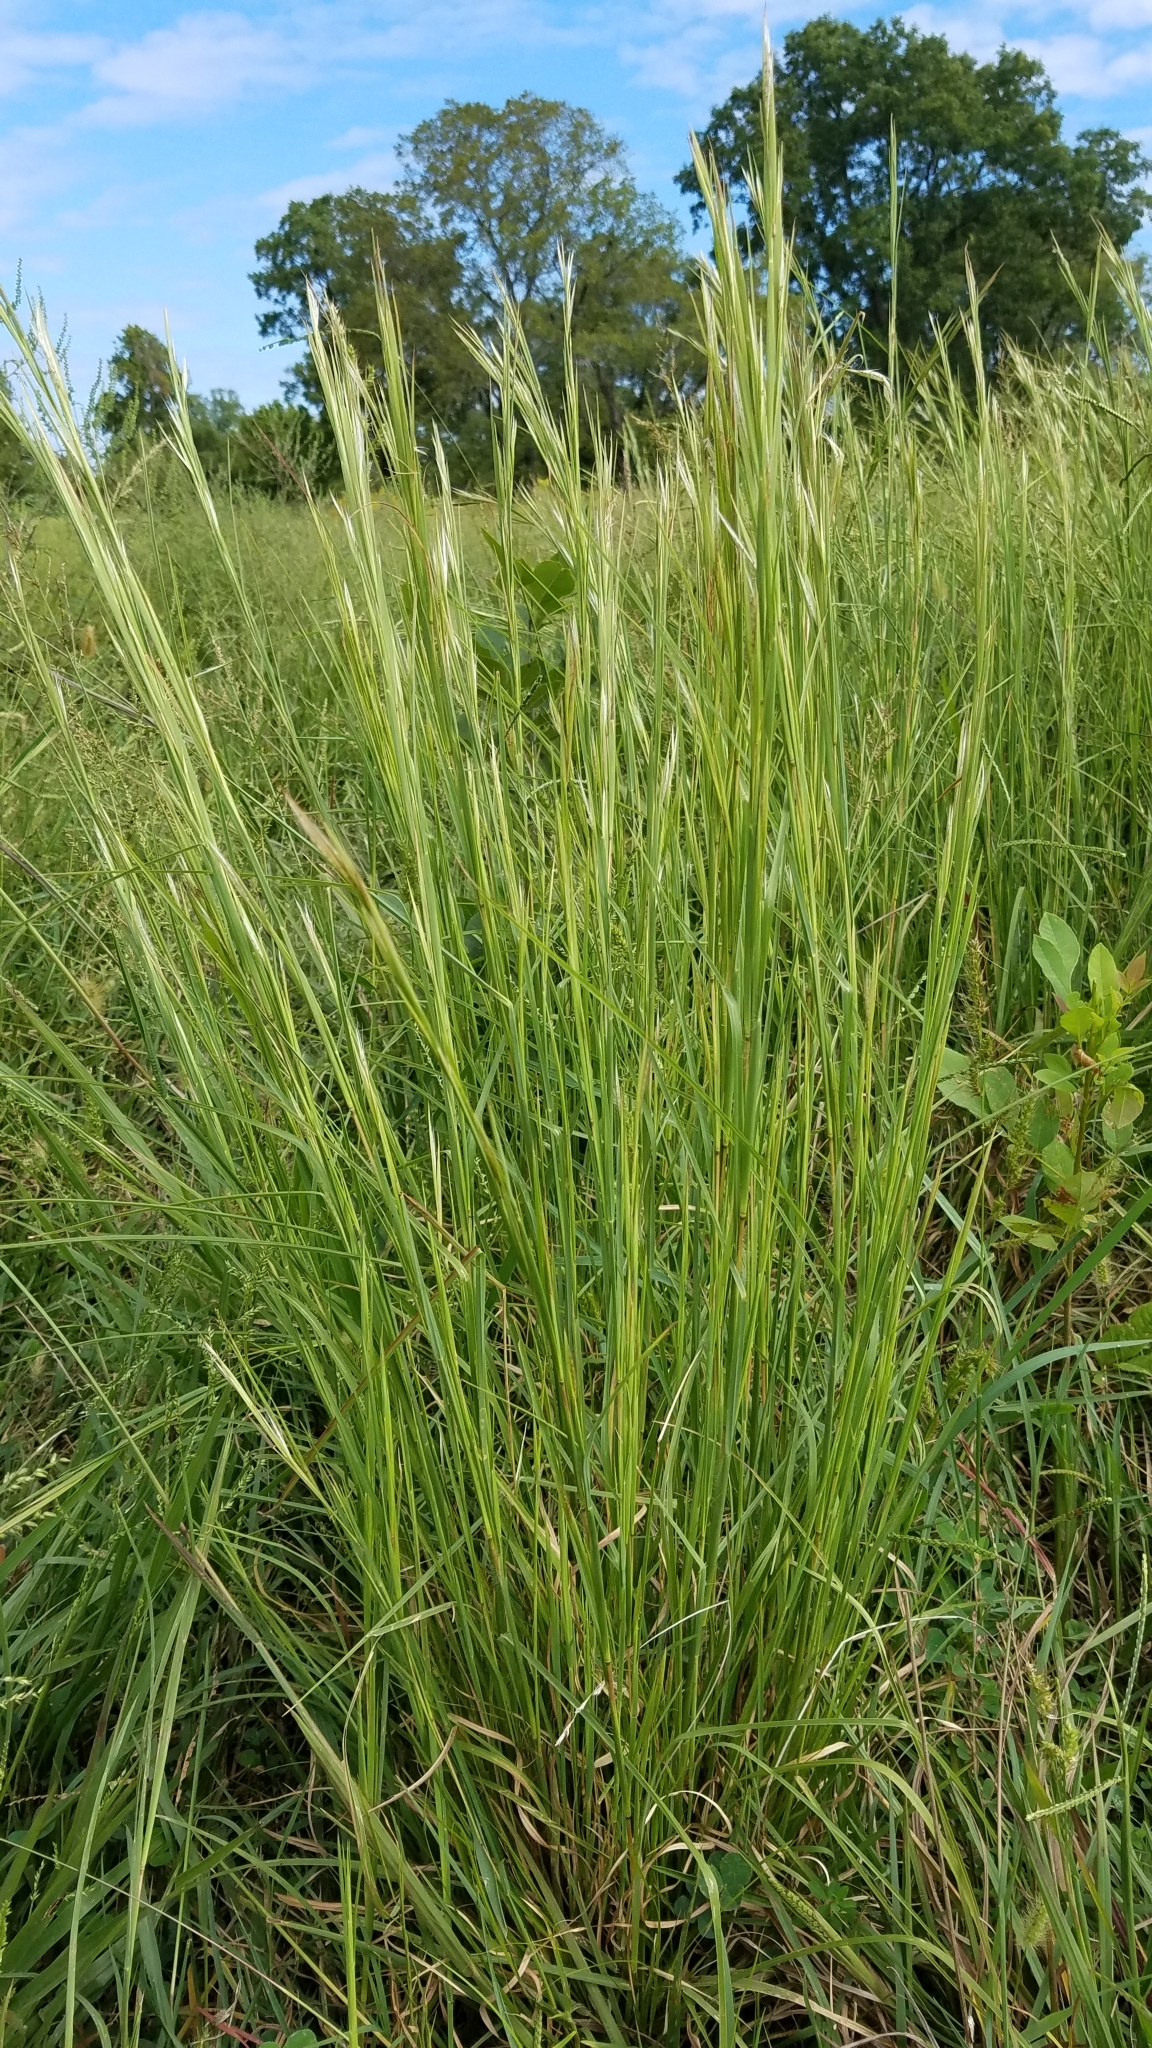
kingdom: Plantae
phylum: Tracheophyta
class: Liliopsida
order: Poales
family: Poaceae
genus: Andropogon
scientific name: Andropogon virginicus
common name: Broomsedge bluestem
